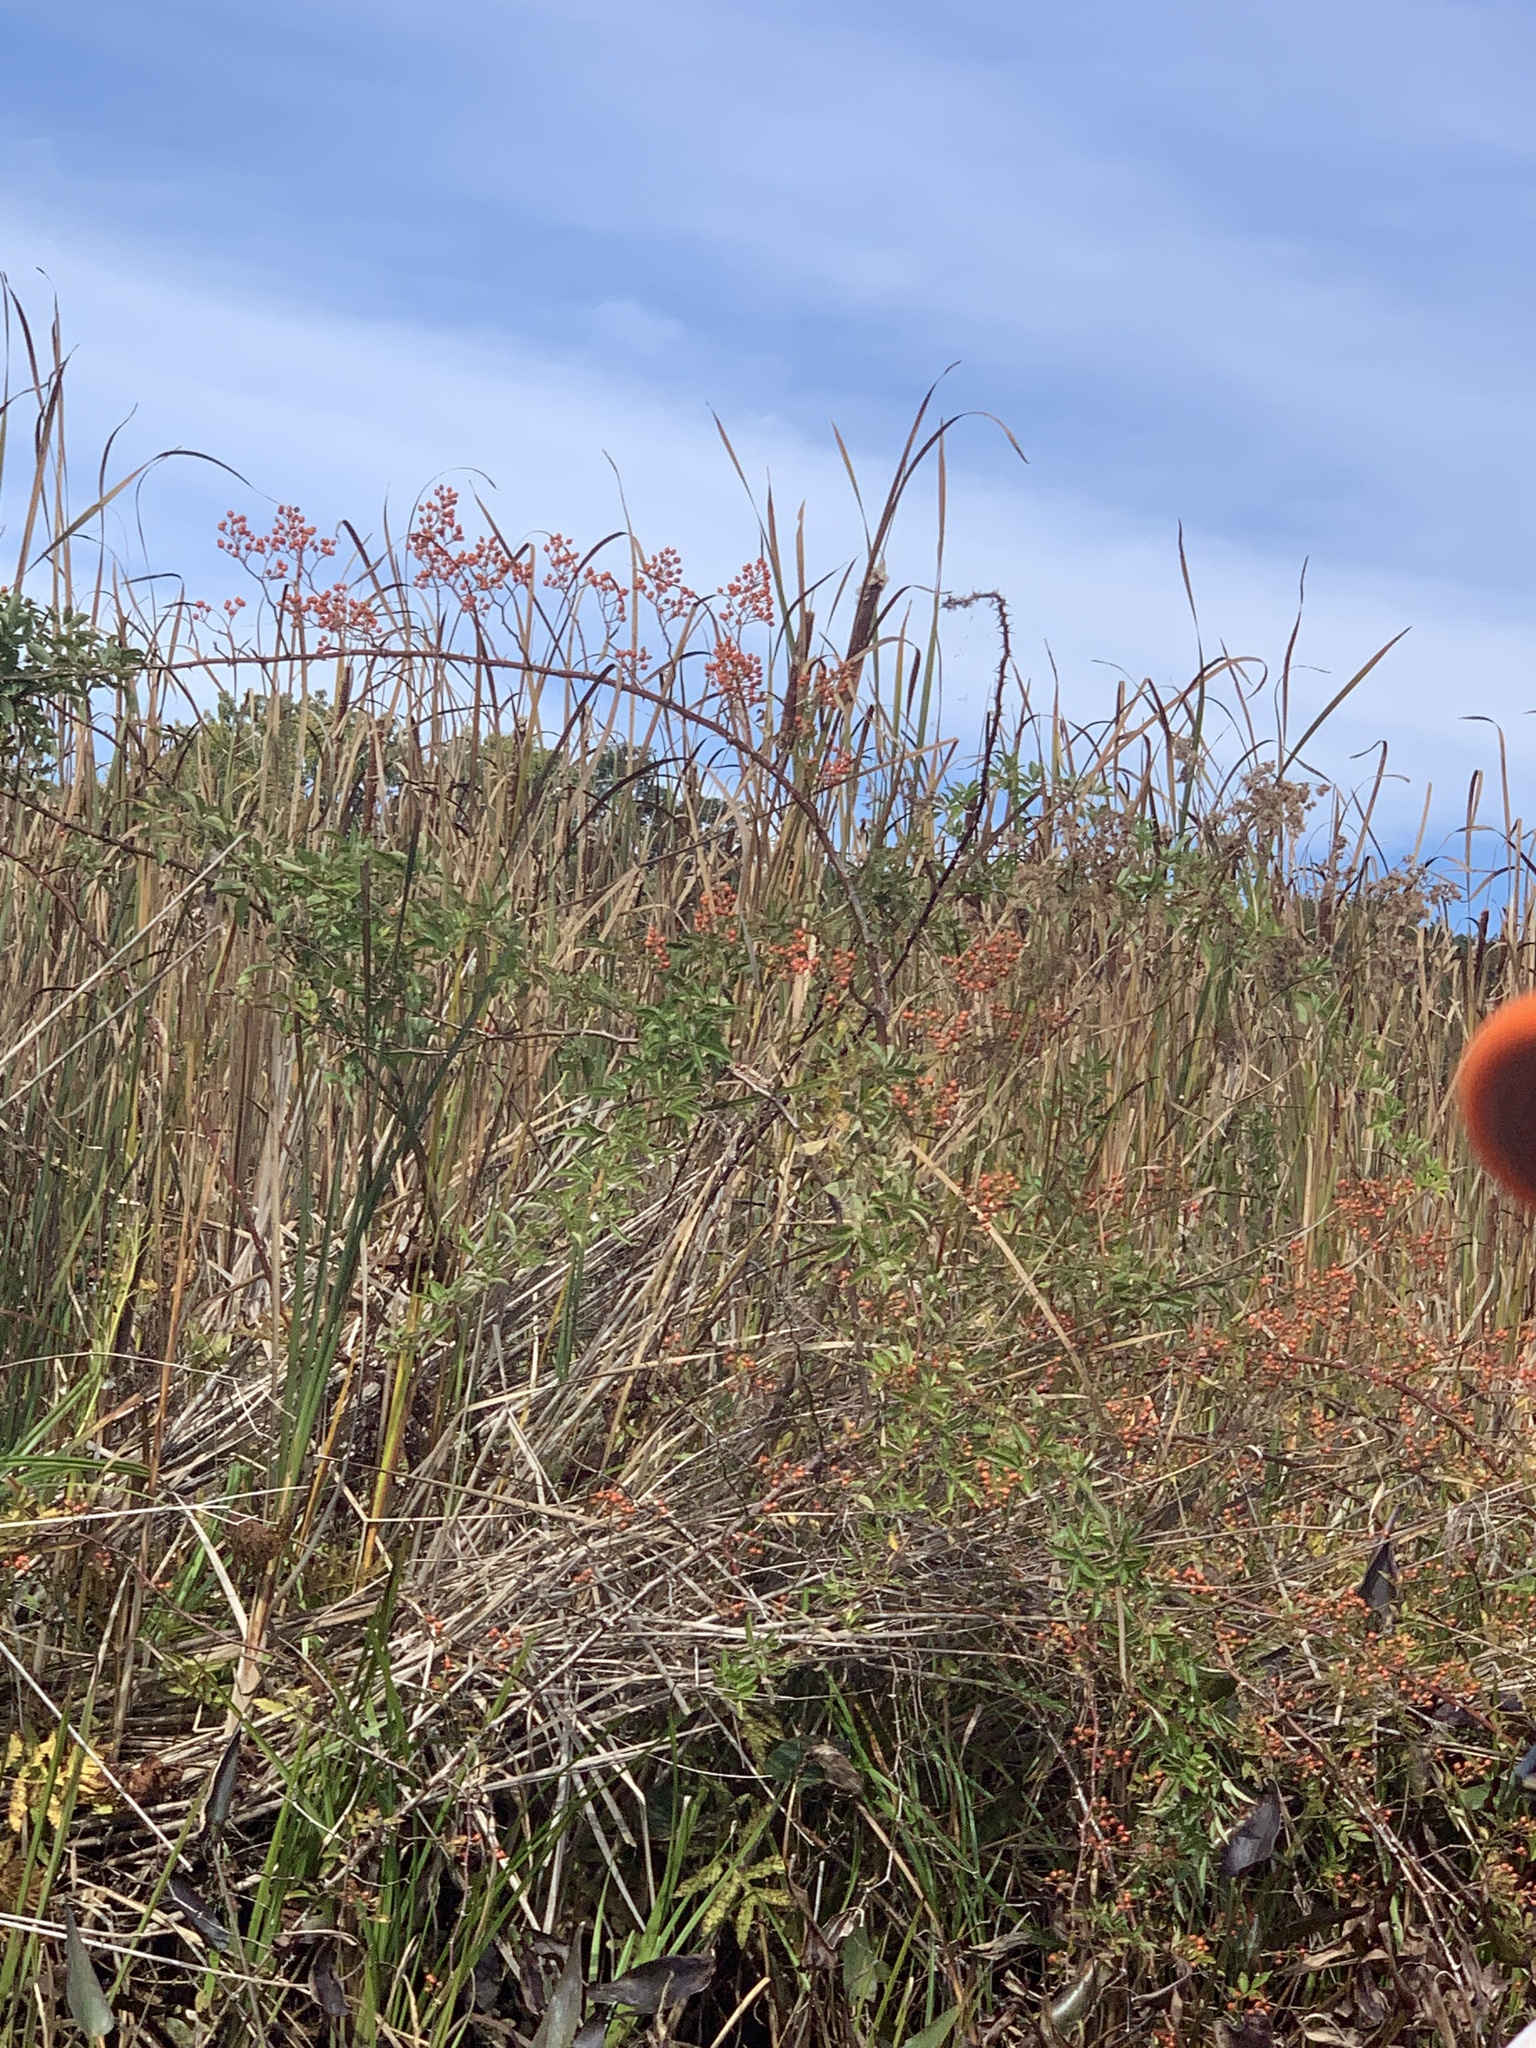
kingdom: Plantae
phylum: Tracheophyta
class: Magnoliopsida
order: Rosales
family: Rosaceae
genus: Rosa
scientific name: Rosa multiflora
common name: Multiflora rose
